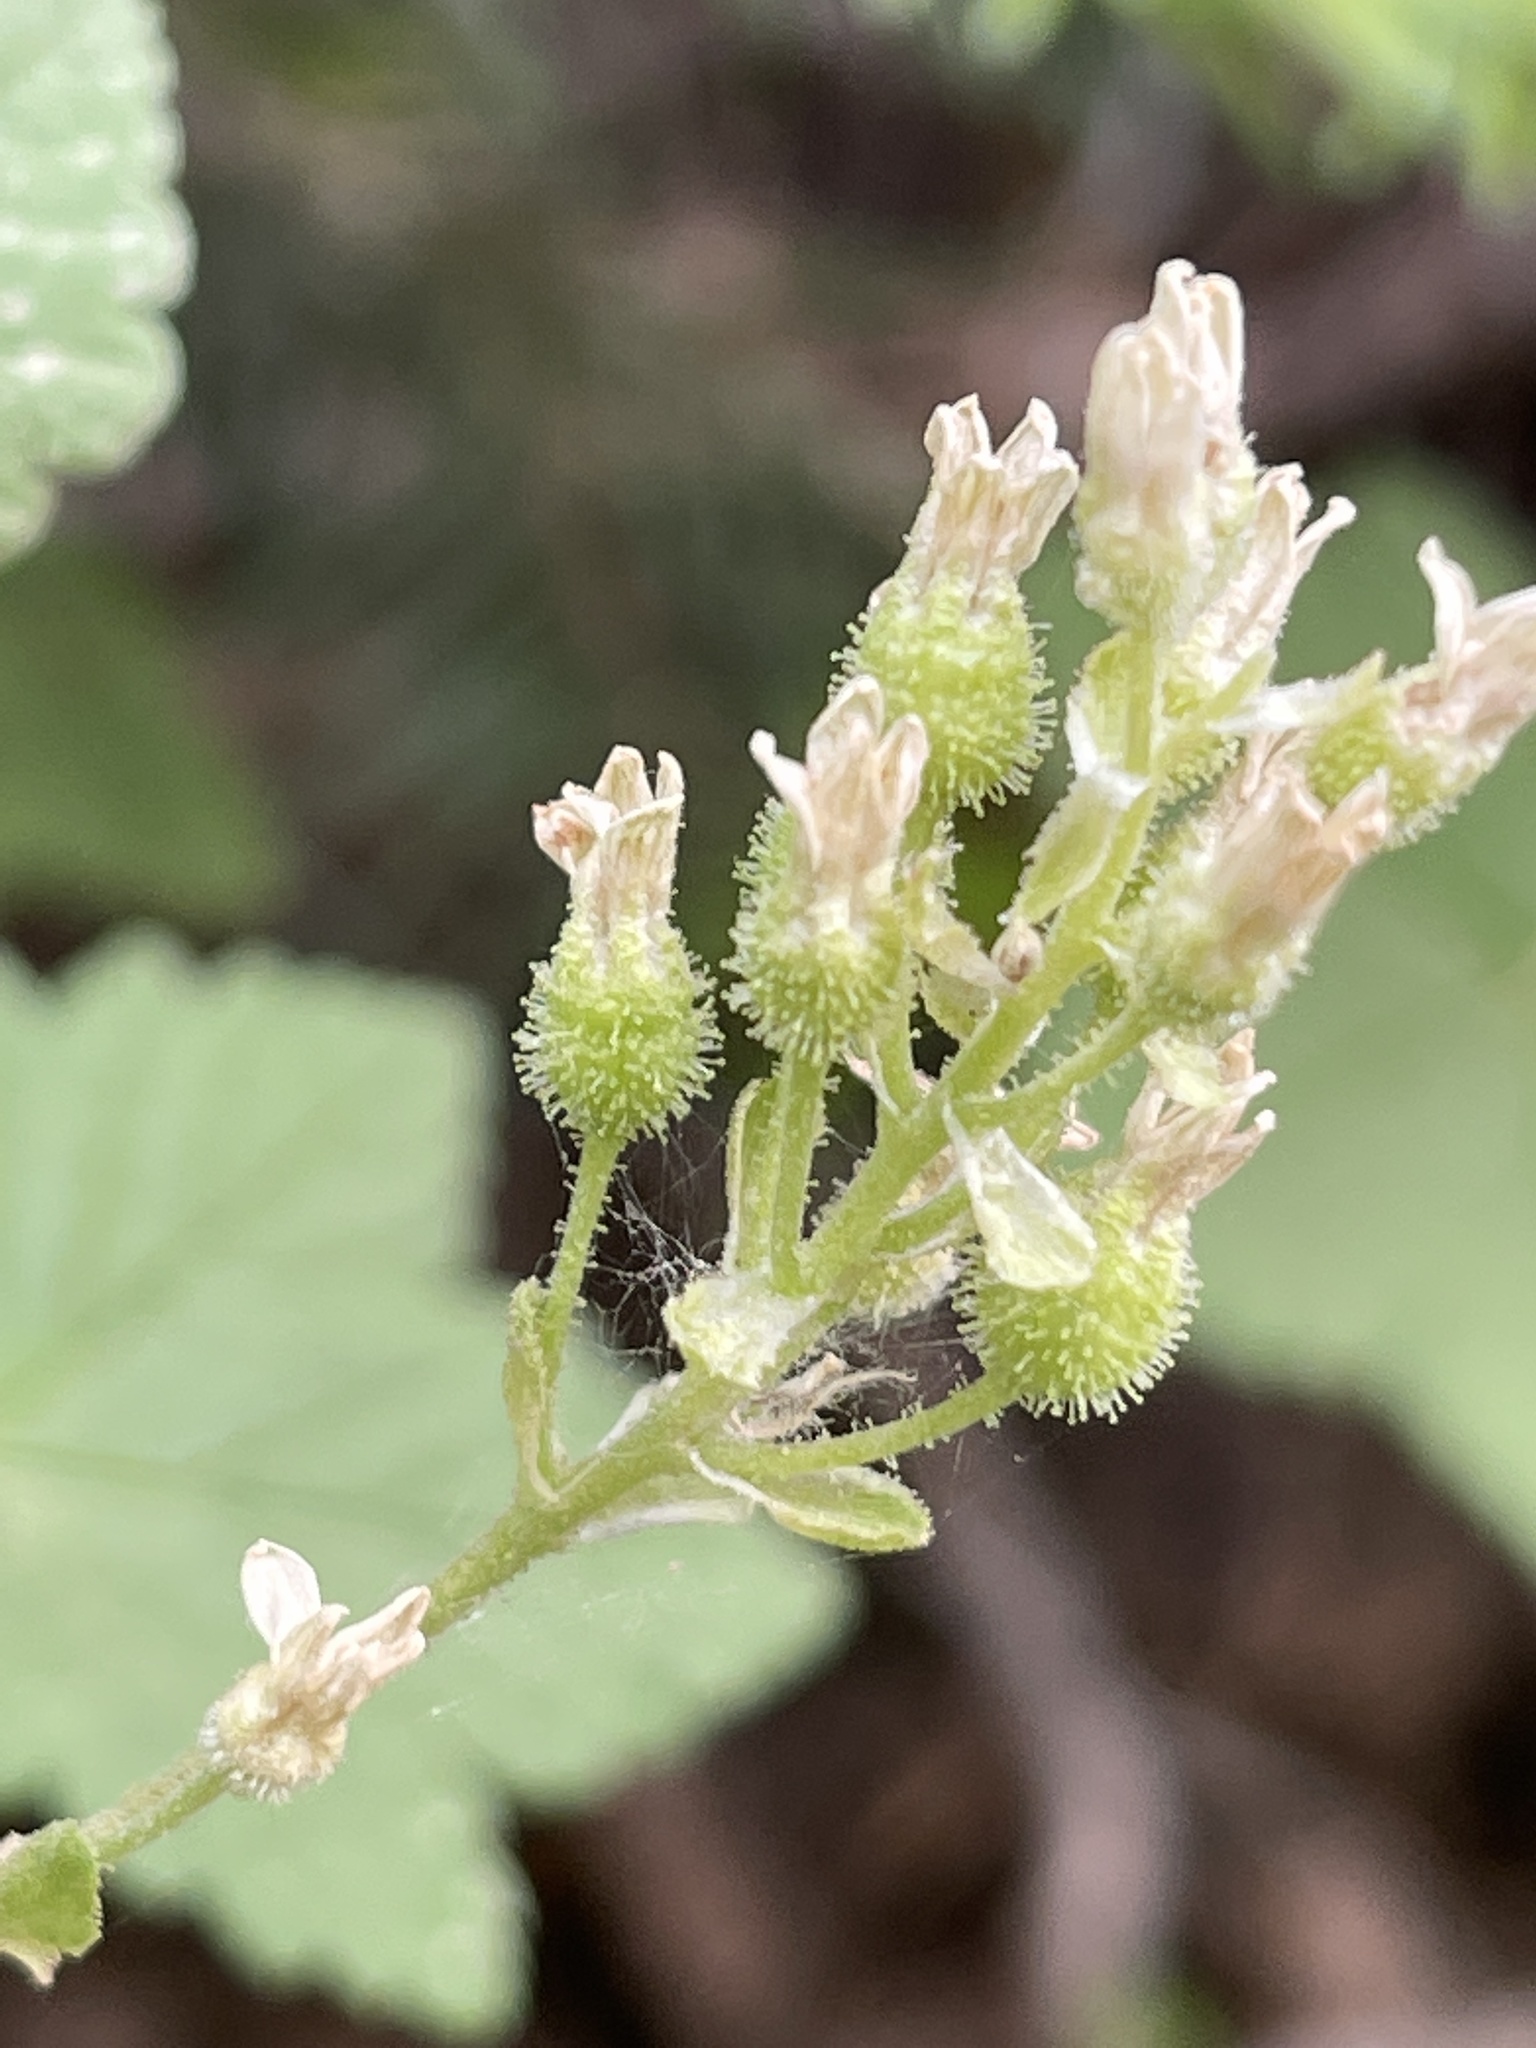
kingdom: Plantae
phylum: Tracheophyta
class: Magnoliopsida
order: Saxifragales
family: Grossulariaceae
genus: Ribes
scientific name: Ribes wolfii
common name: Rothrock currant
